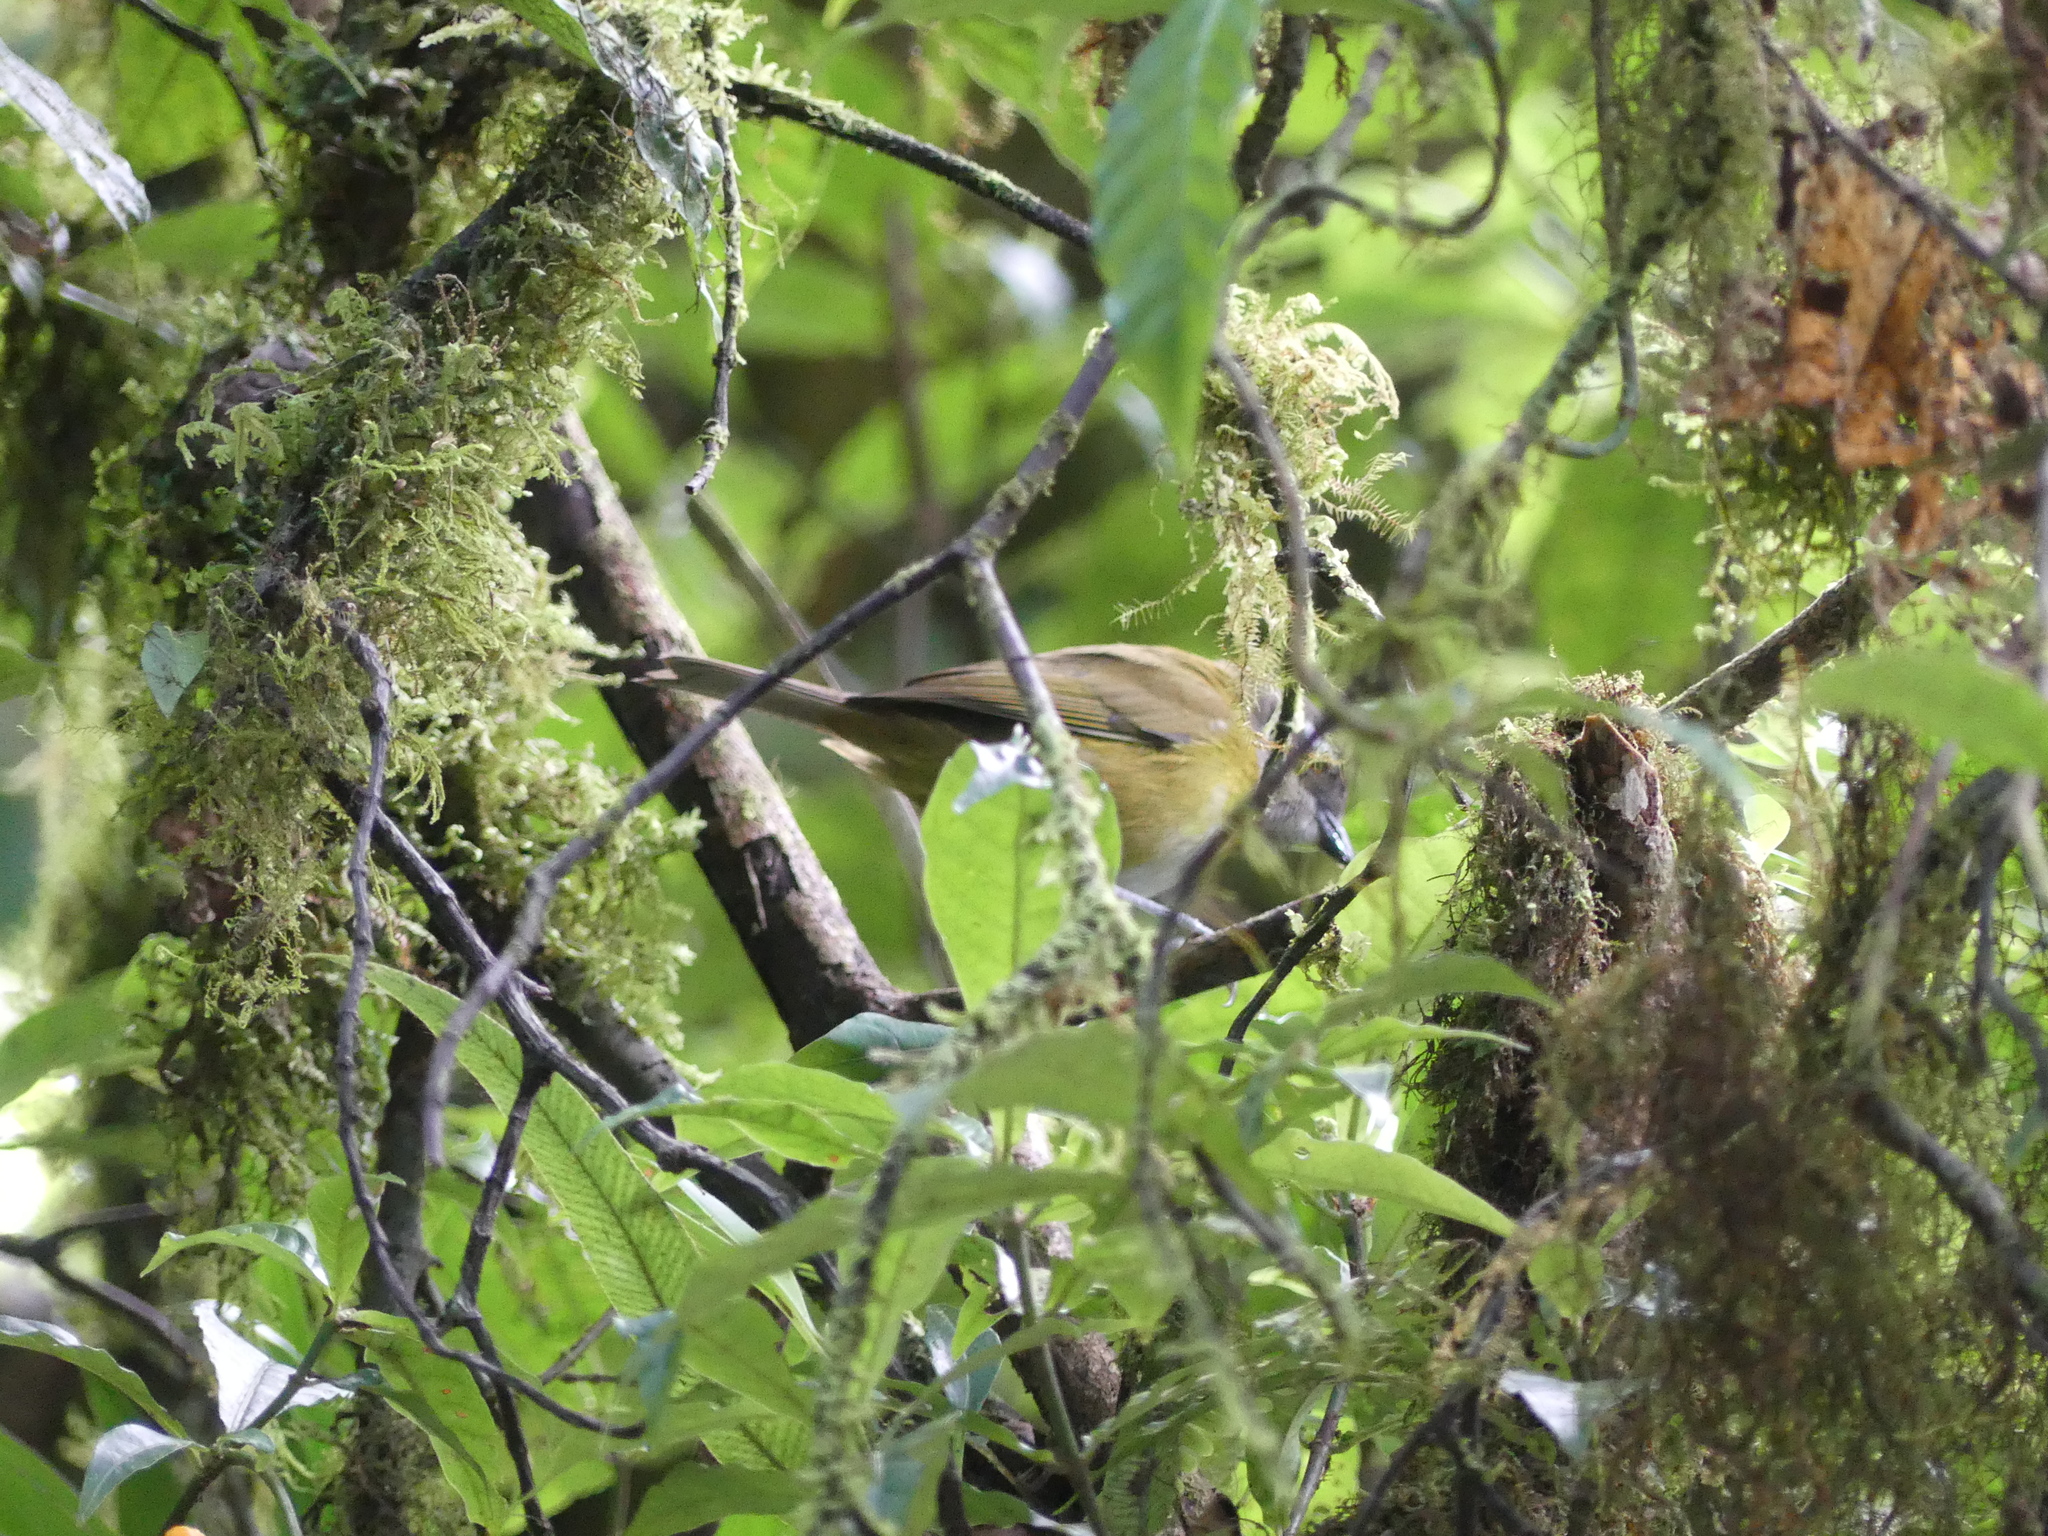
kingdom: Animalia
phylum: Chordata
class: Aves
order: Passeriformes
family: Passerellidae
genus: Chlorospingus
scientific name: Chlorospingus flavopectus
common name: Common chlorospingus
